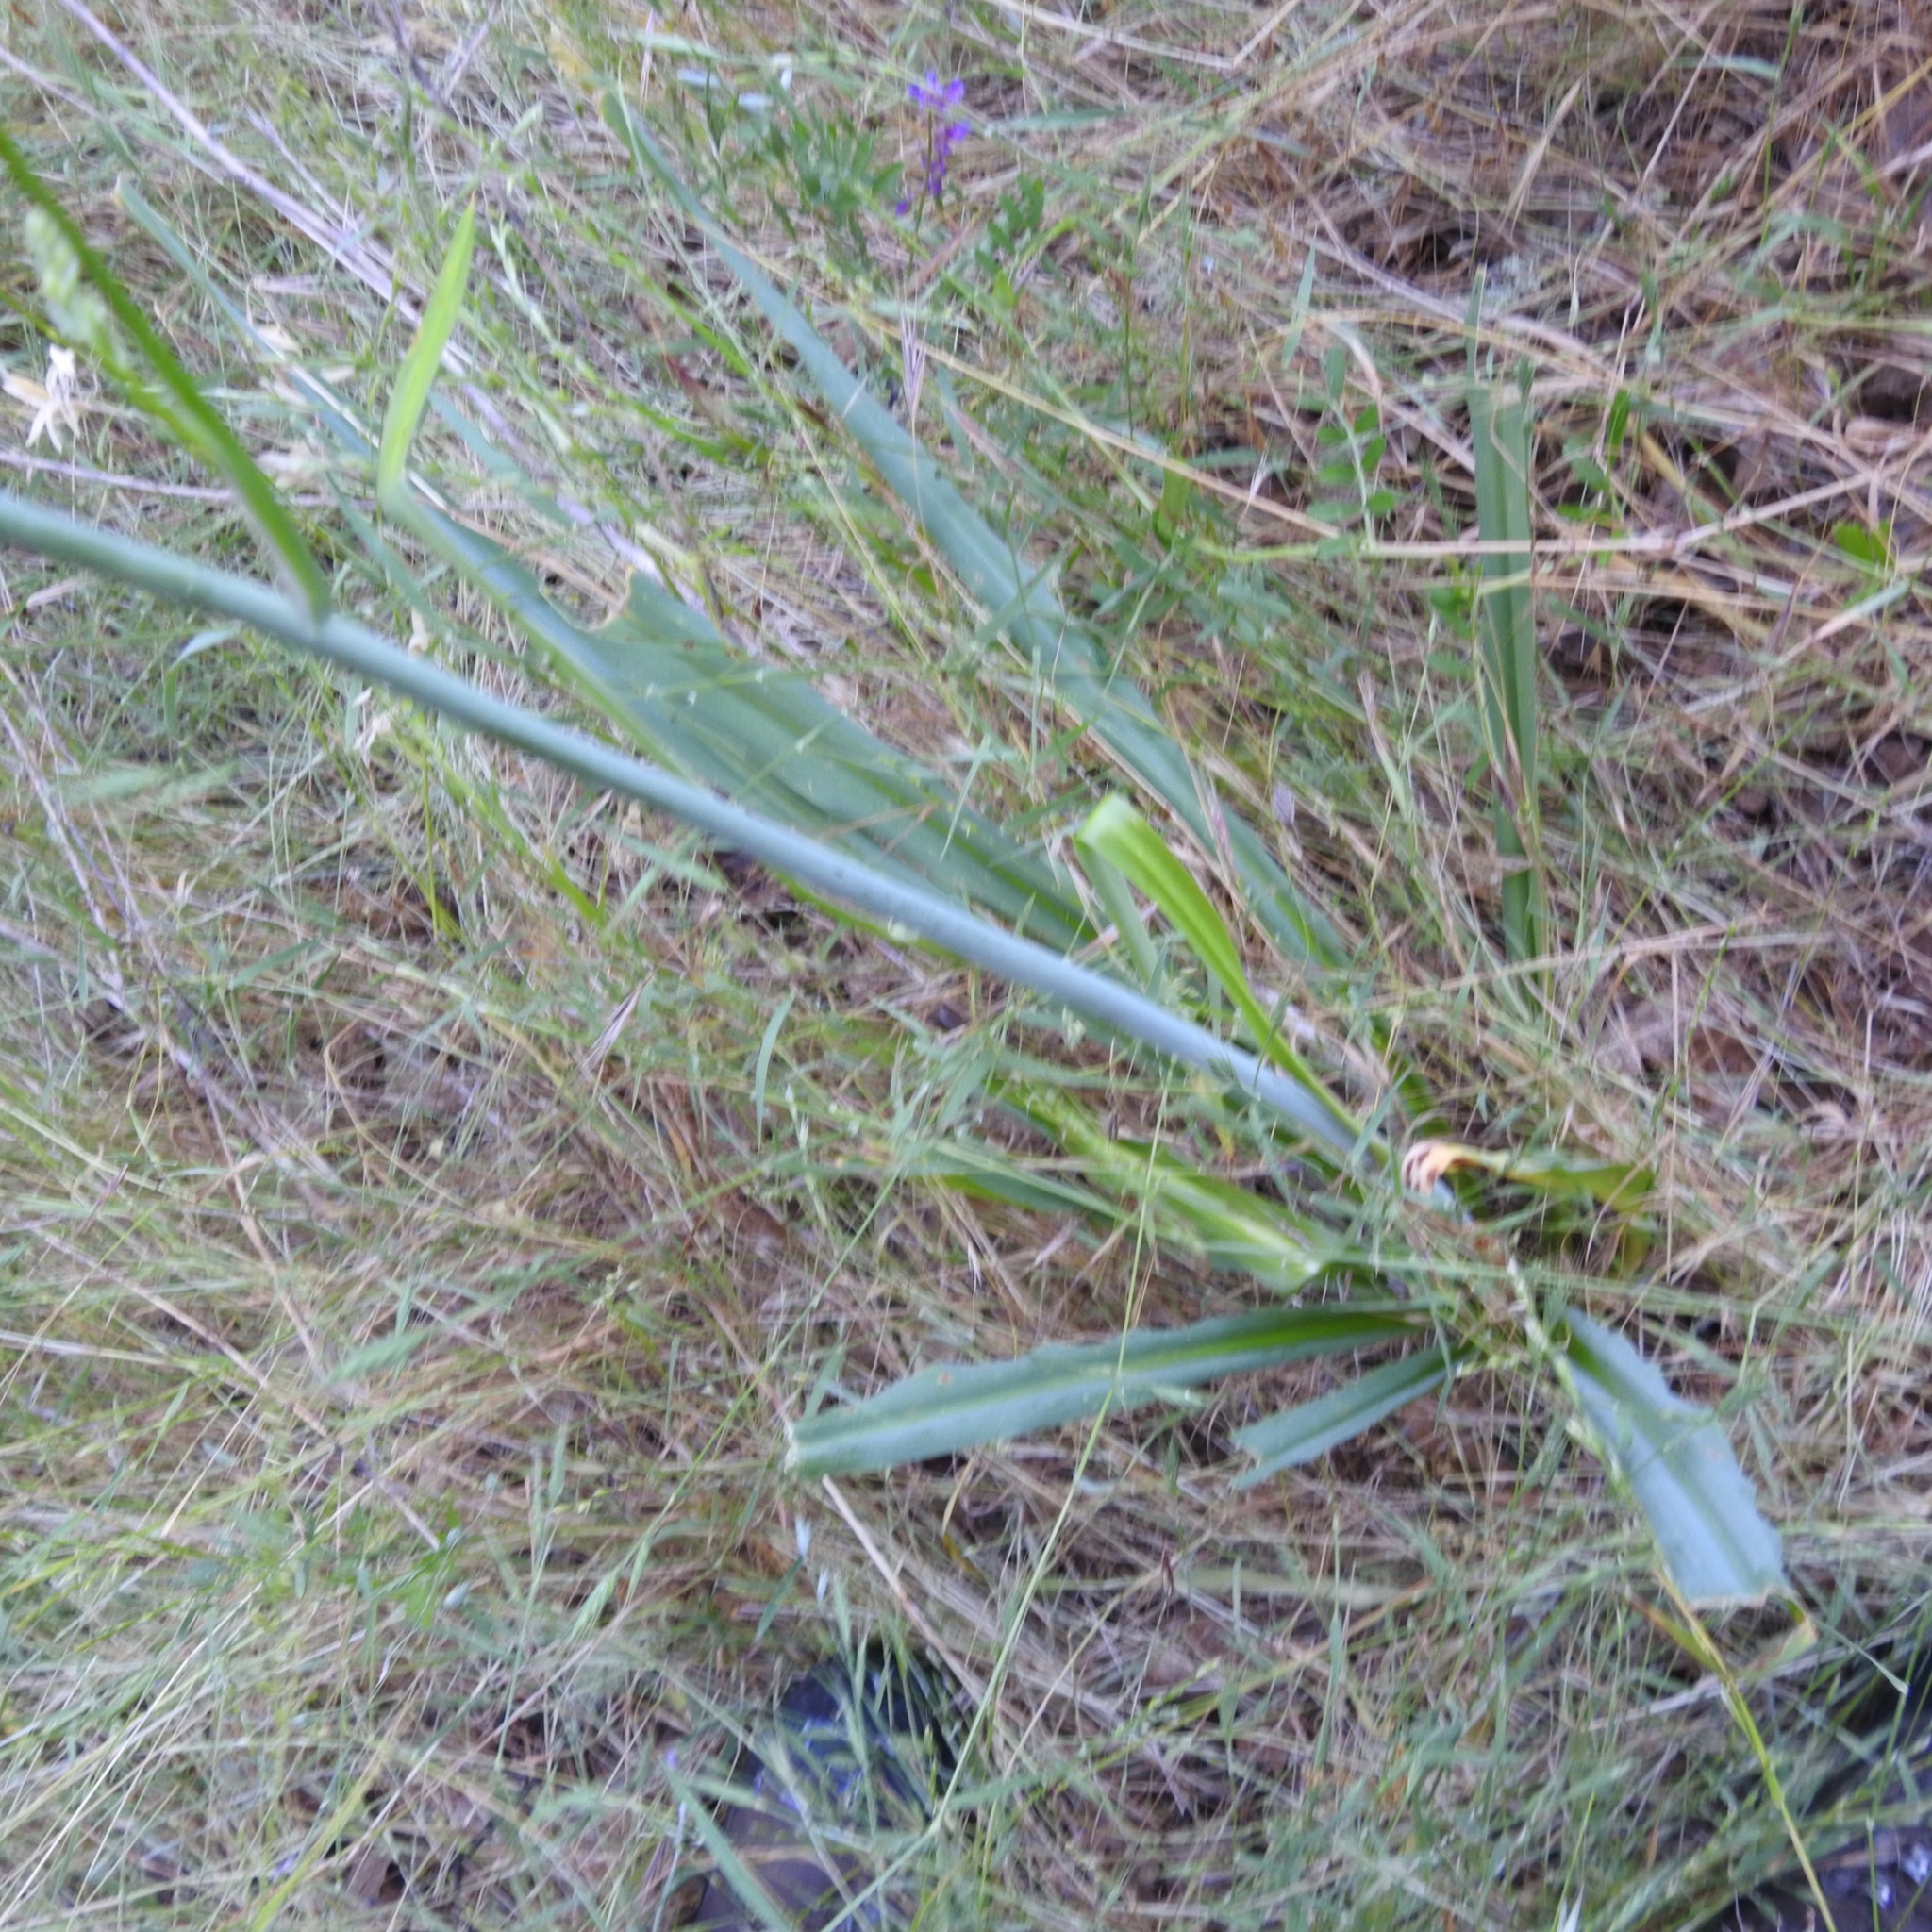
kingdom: Plantae
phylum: Tracheophyta
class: Liliopsida
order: Asparagales
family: Asparagaceae
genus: Chlorogalum
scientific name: Chlorogalum pomeridianum
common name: Amole
